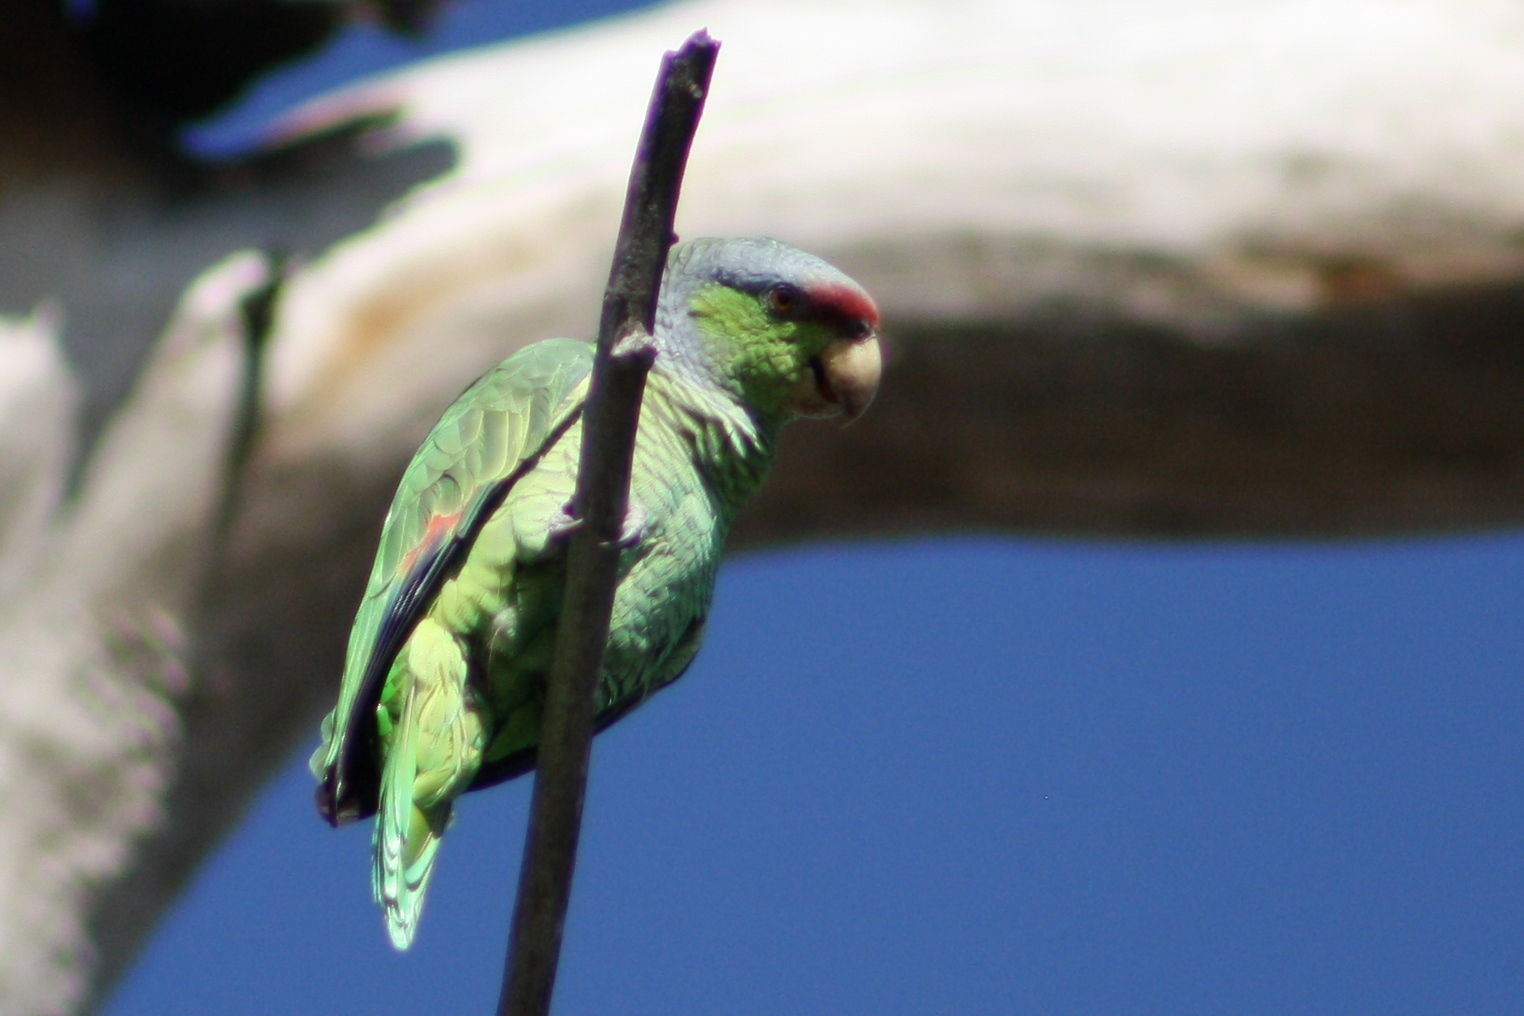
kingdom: Animalia
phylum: Chordata
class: Aves
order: Psittaciformes
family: Psittacidae
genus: Amazona
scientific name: Amazona finschi
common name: Lilac-crowned amazon
